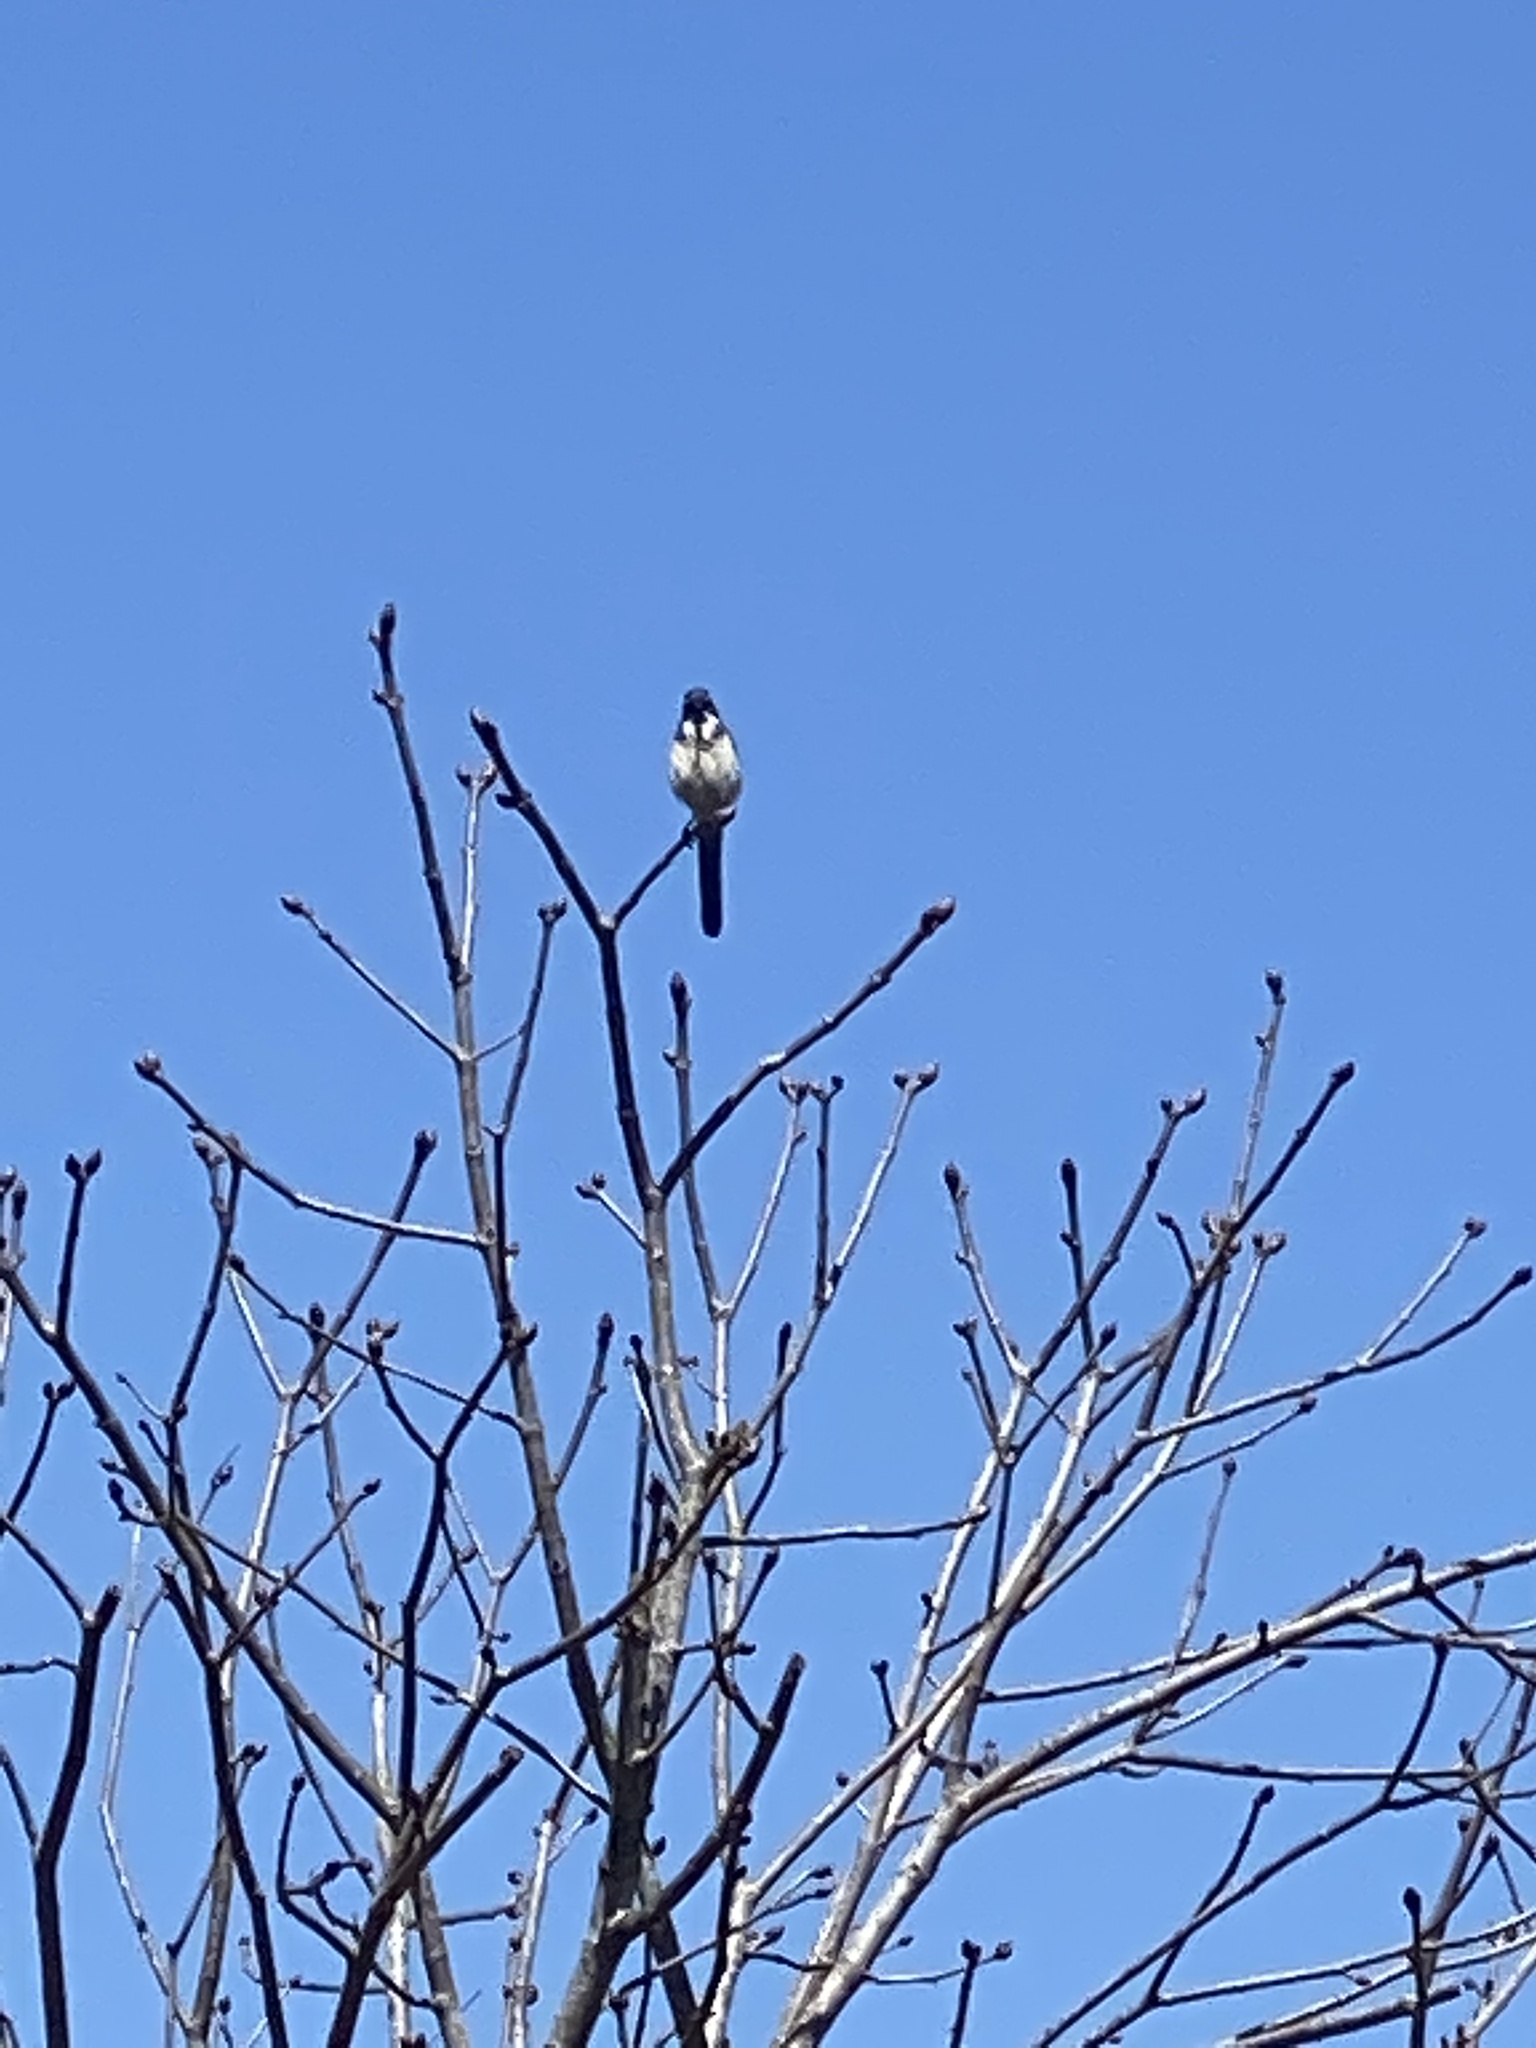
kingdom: Animalia
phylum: Chordata
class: Aves
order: Passeriformes
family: Corvidae
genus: Aphelocoma
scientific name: Aphelocoma californica
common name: California scrub-jay
